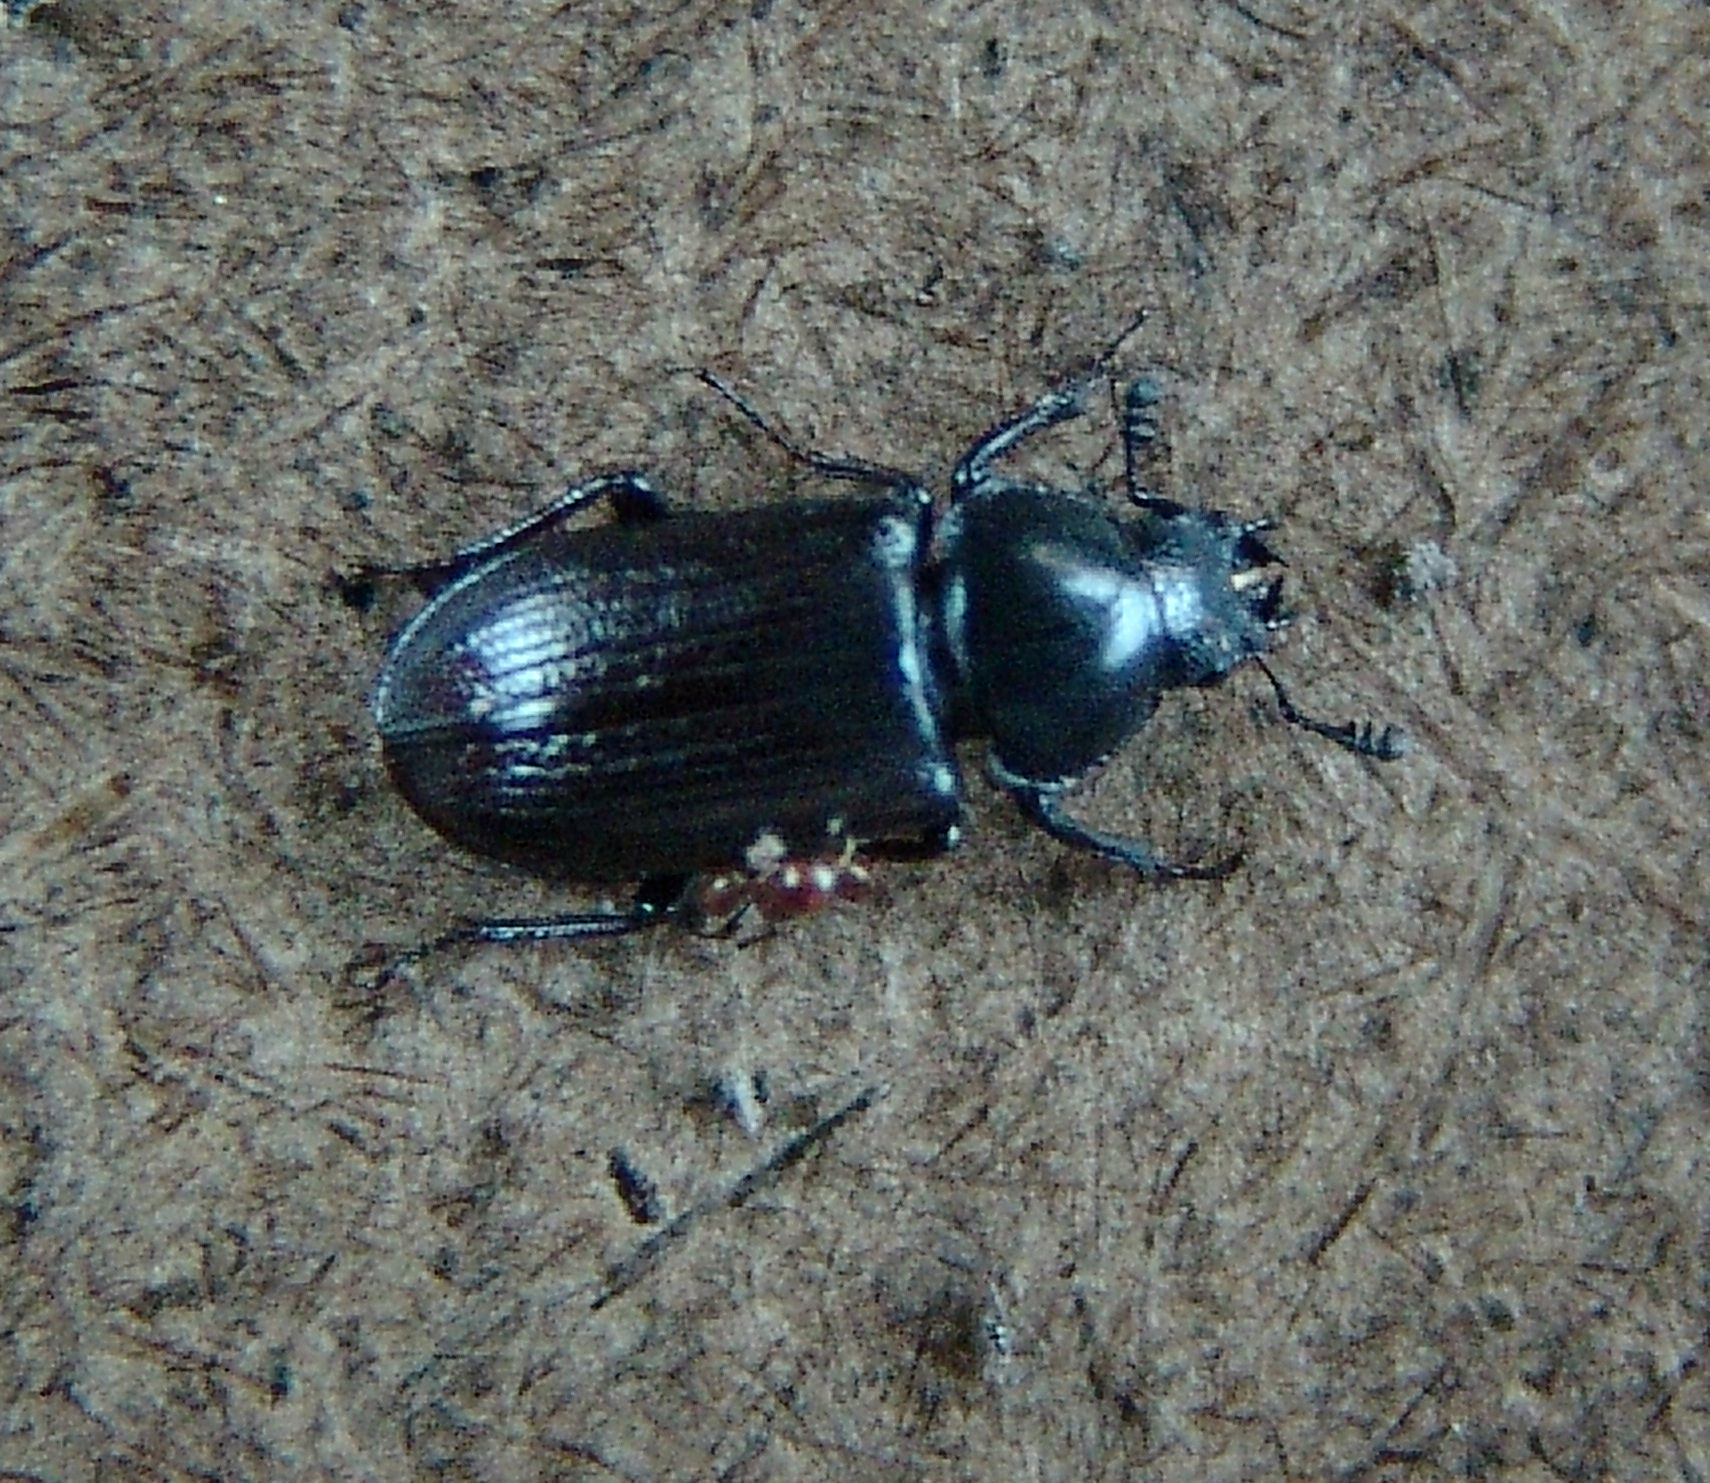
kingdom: Animalia
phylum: Arthropoda
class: Insecta
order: Coleoptera
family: Lucanidae
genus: Platycerus
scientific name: Platycerus quercus
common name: Oak stag beetle
